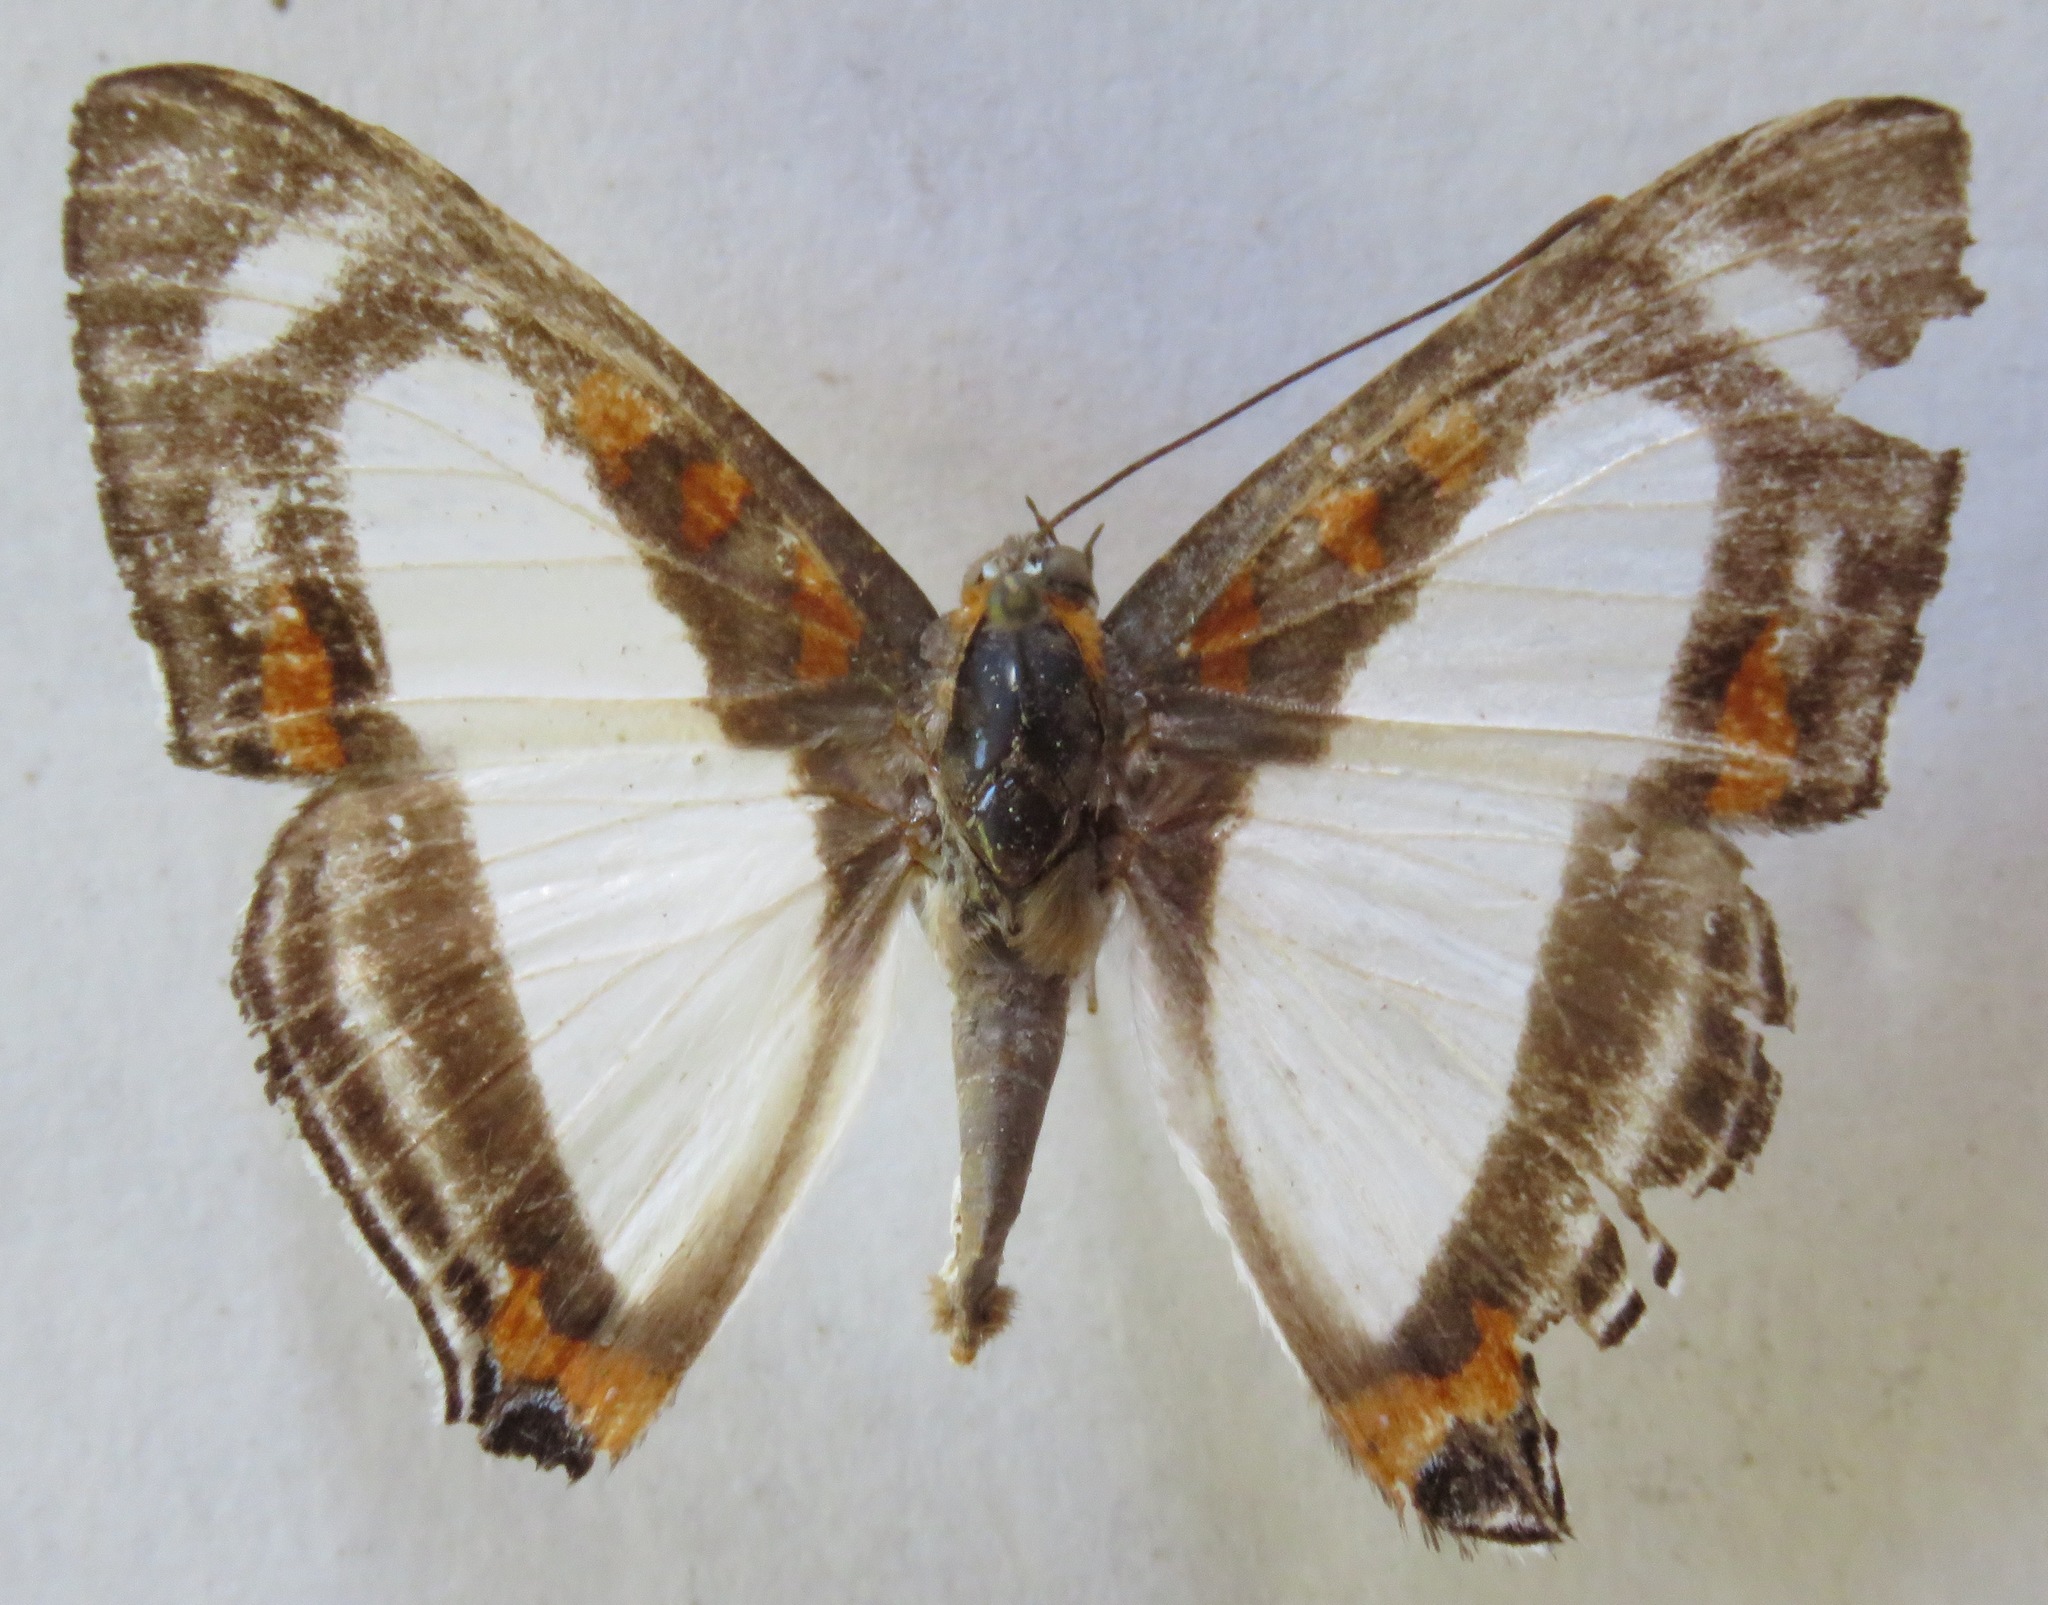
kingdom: Animalia
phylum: Arthropoda
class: Insecta
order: Lepidoptera
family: Riodinidae
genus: Thisbe
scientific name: Thisbe lycorias
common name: Banner metalmark
